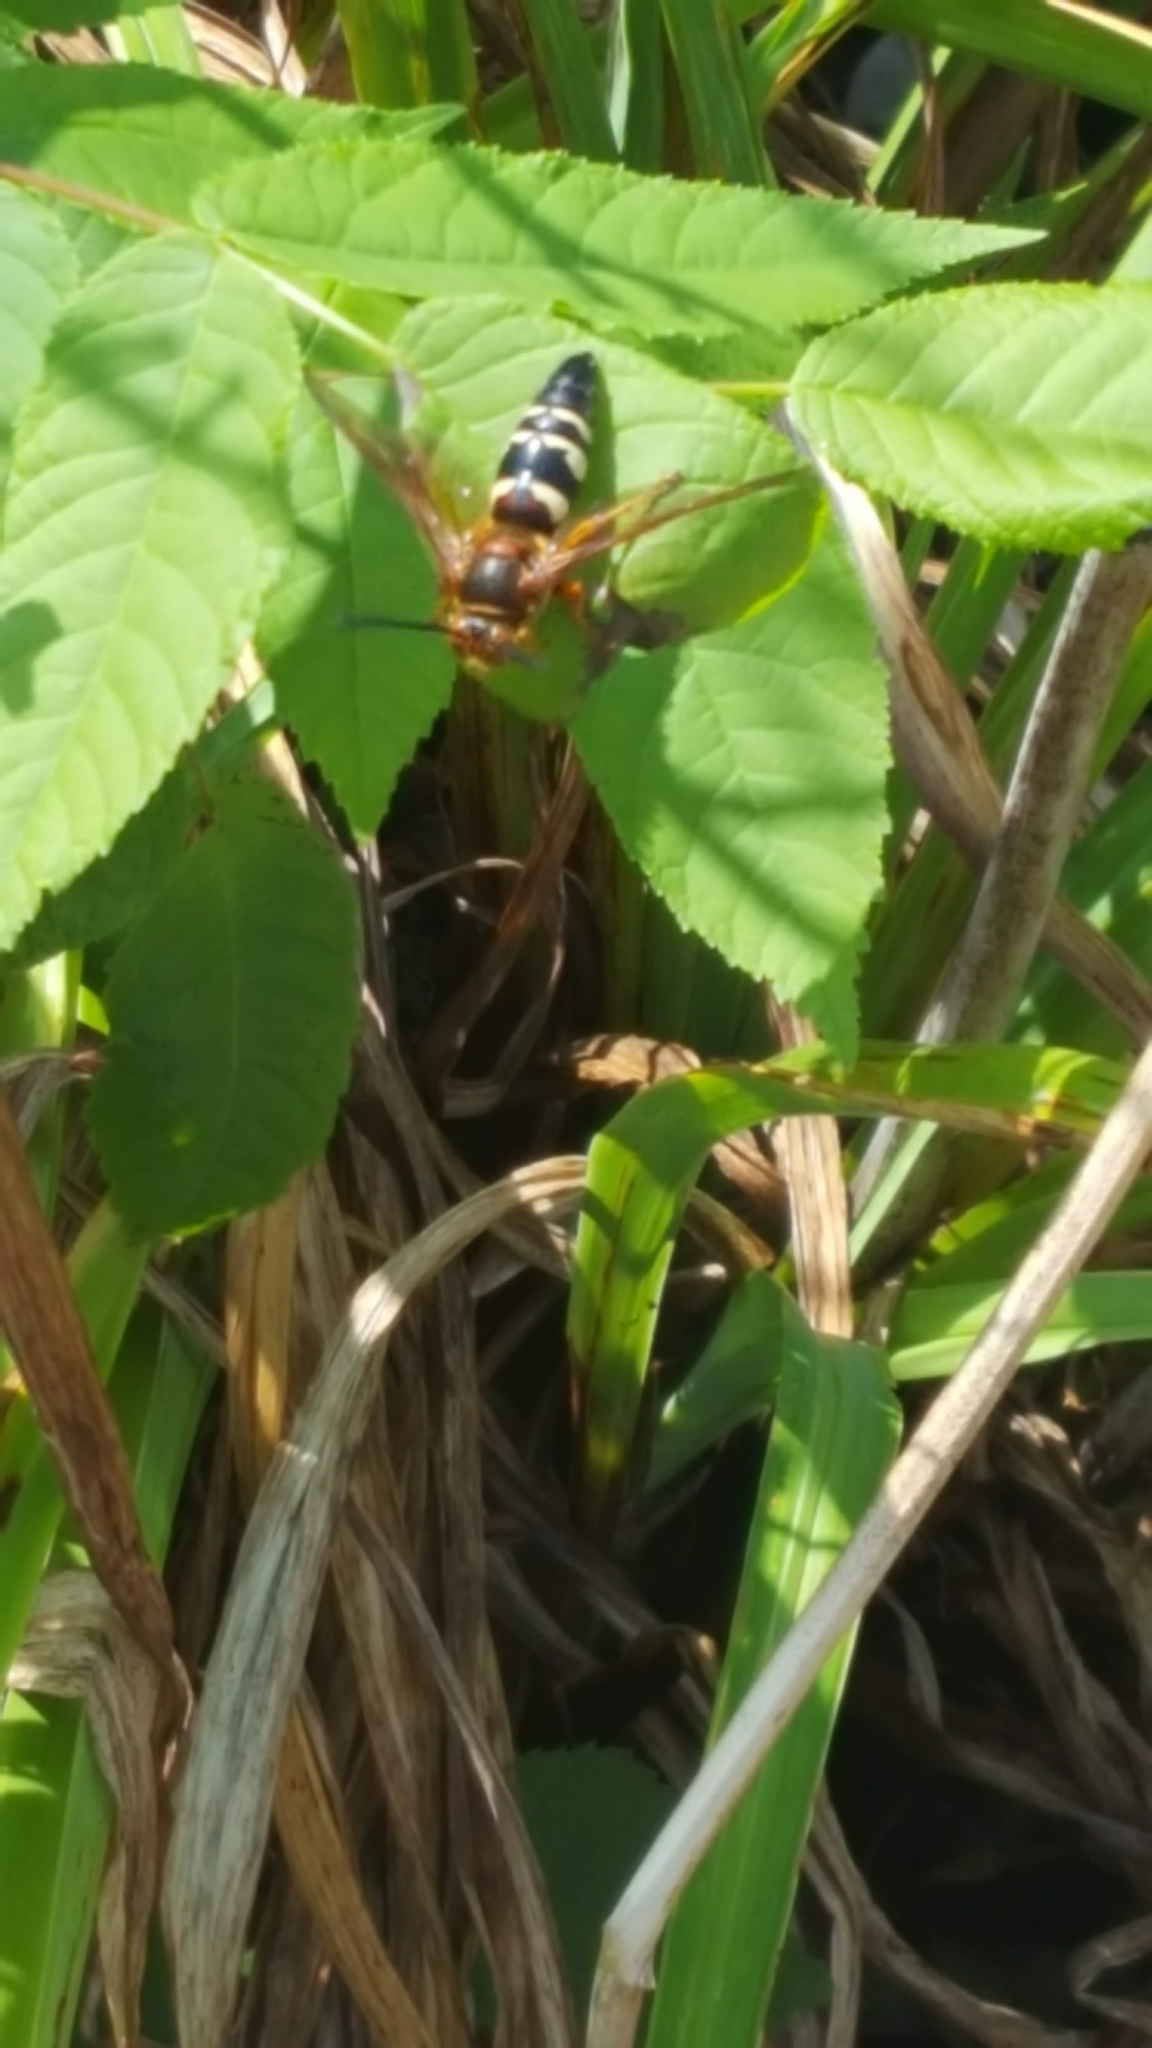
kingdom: Animalia
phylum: Arthropoda
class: Insecta
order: Hymenoptera
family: Crabronidae
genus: Sphecius
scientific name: Sphecius speciosus
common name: Cicada killer
